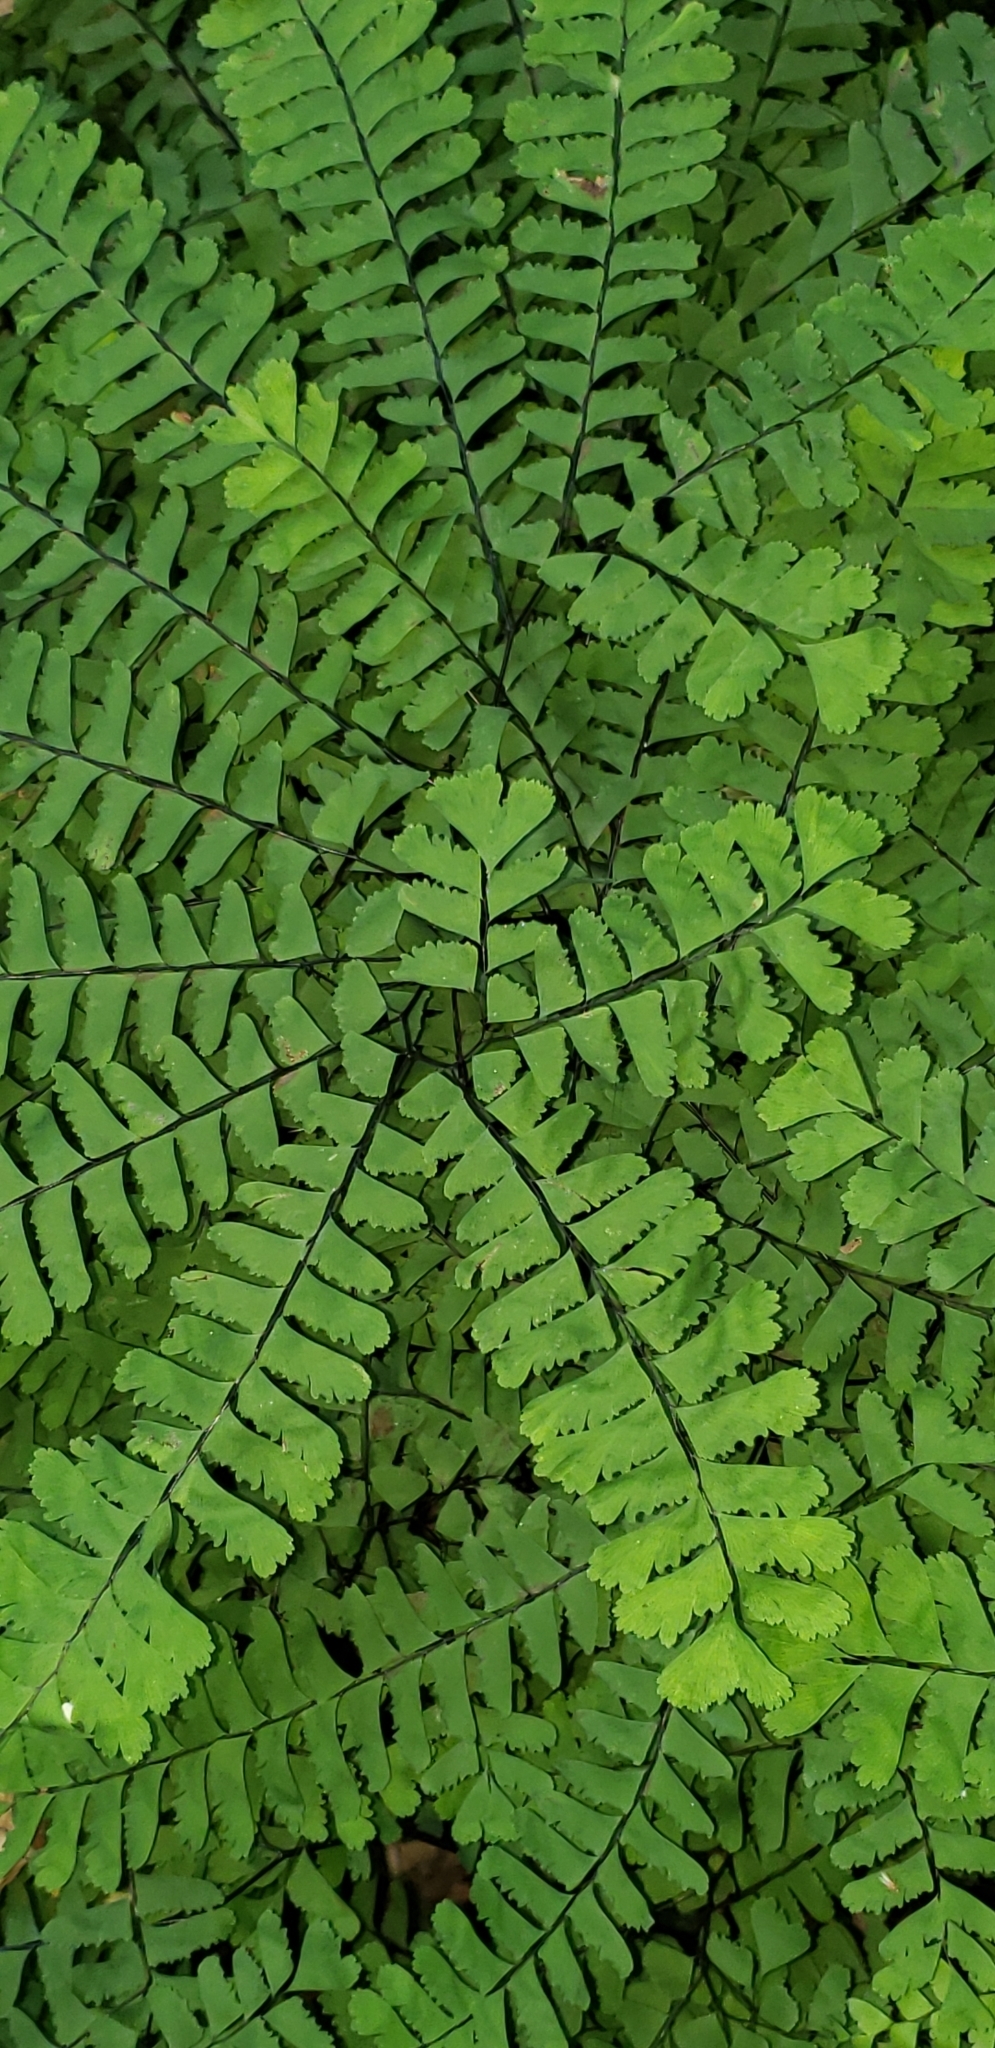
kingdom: Plantae
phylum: Tracheophyta
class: Polypodiopsida
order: Polypodiales
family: Pteridaceae
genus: Adiantum
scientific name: Adiantum pedatum
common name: Five-finger fern
